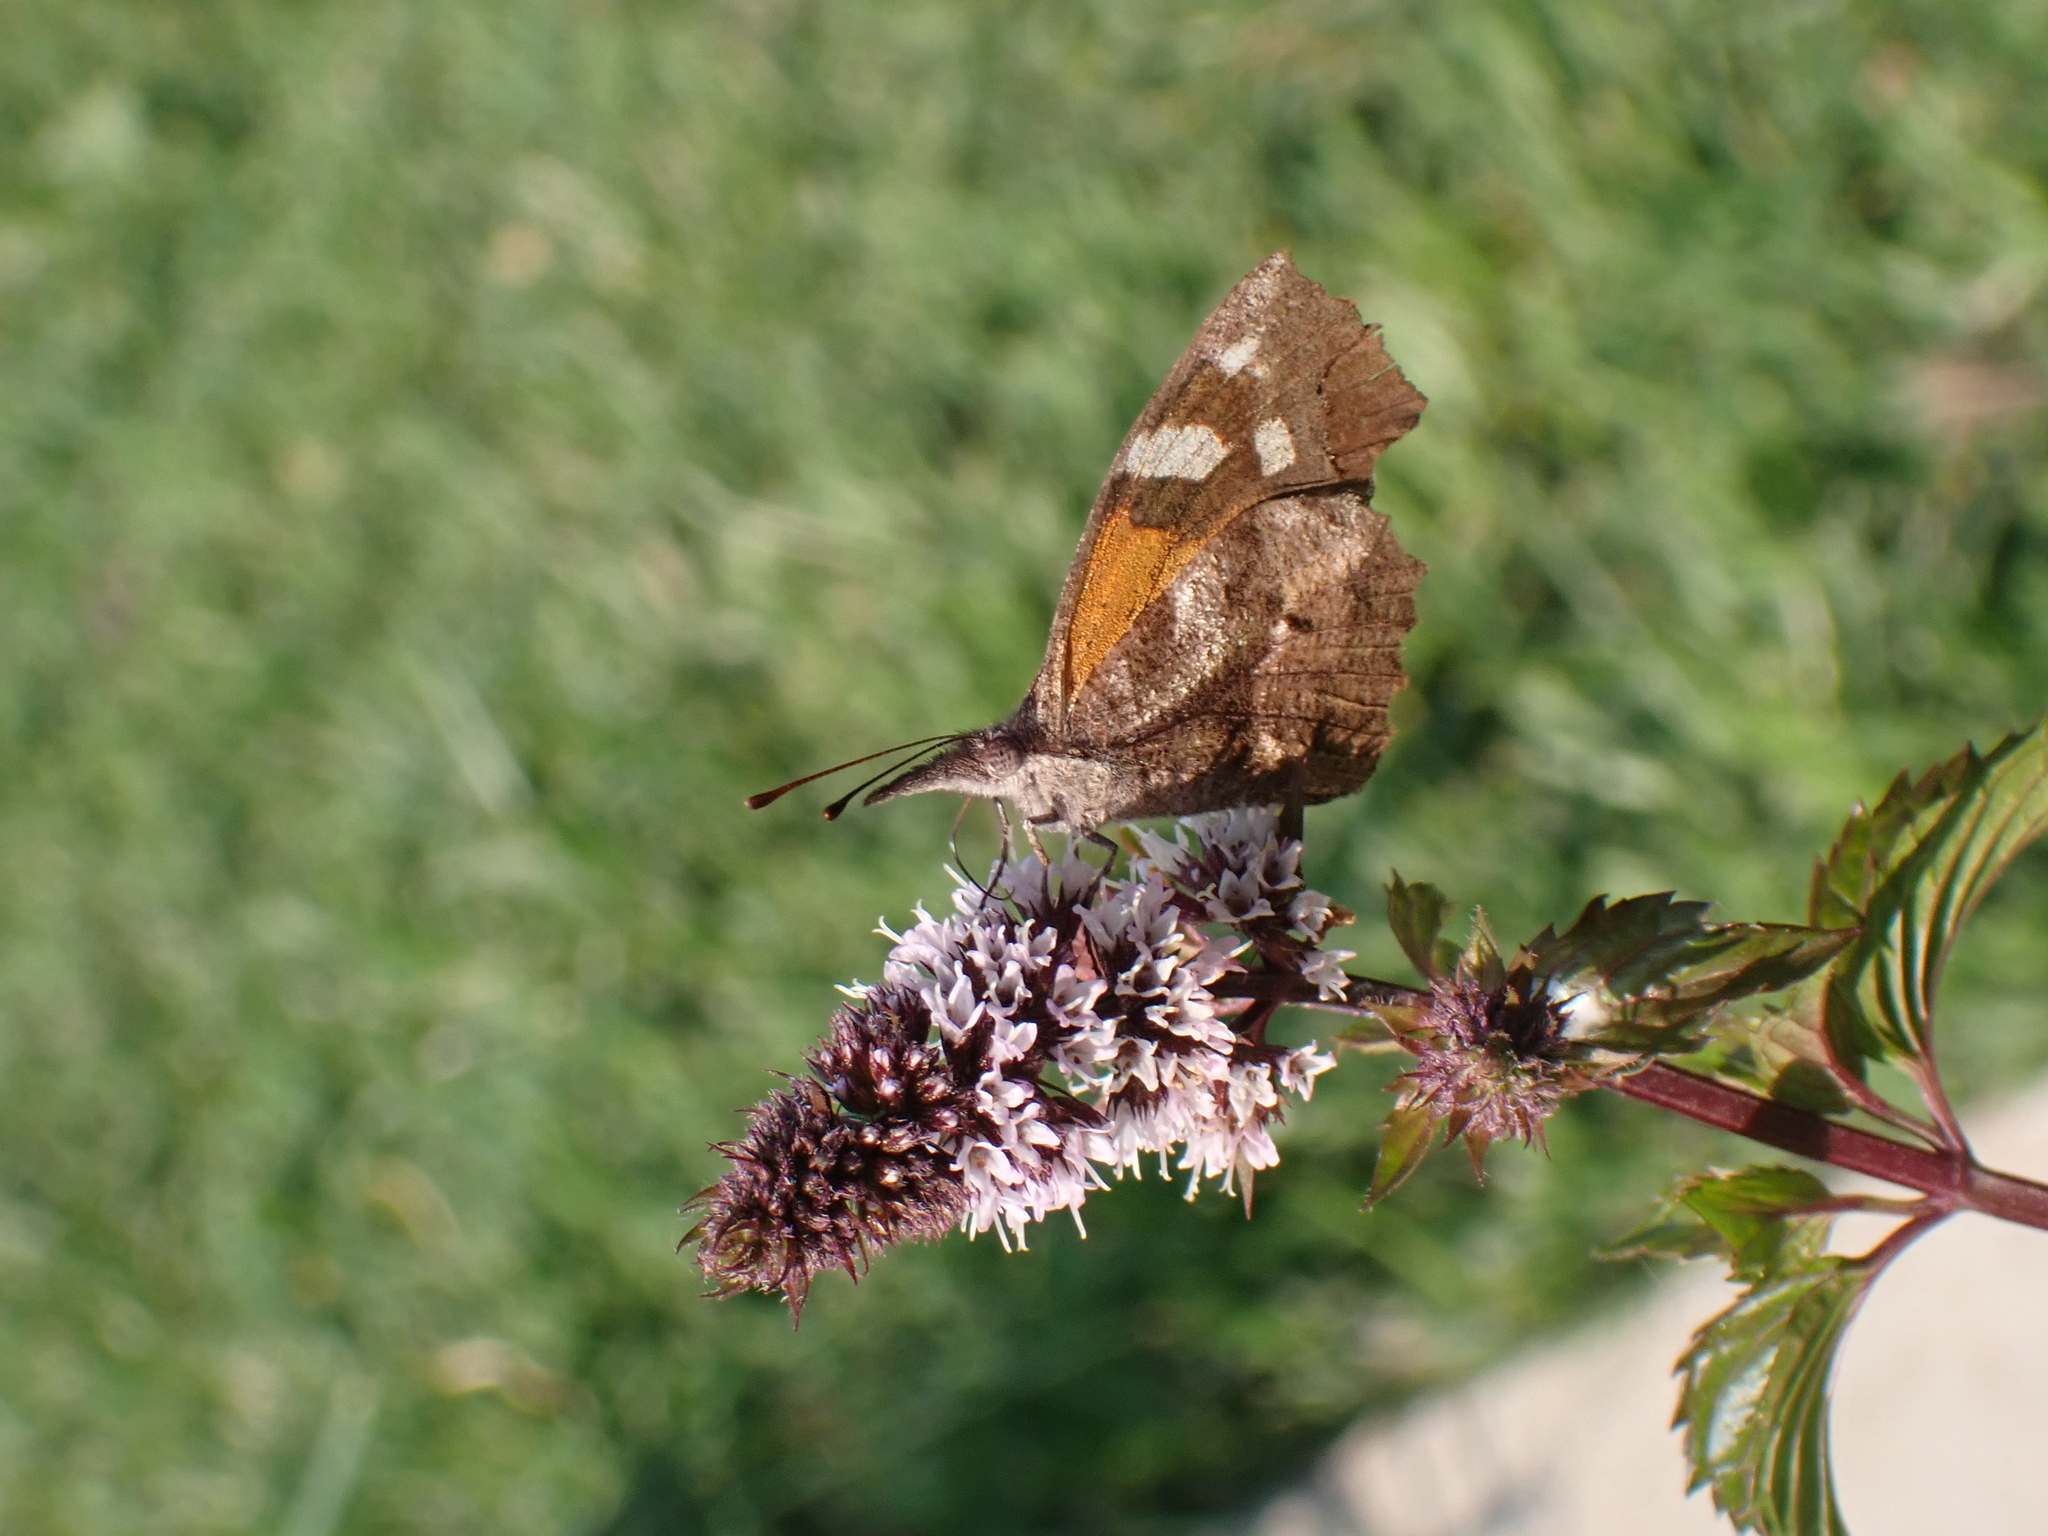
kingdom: Animalia
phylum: Arthropoda
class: Insecta
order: Lepidoptera
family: Nymphalidae
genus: Libytheana
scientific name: Libytheana carinenta
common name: American snout
